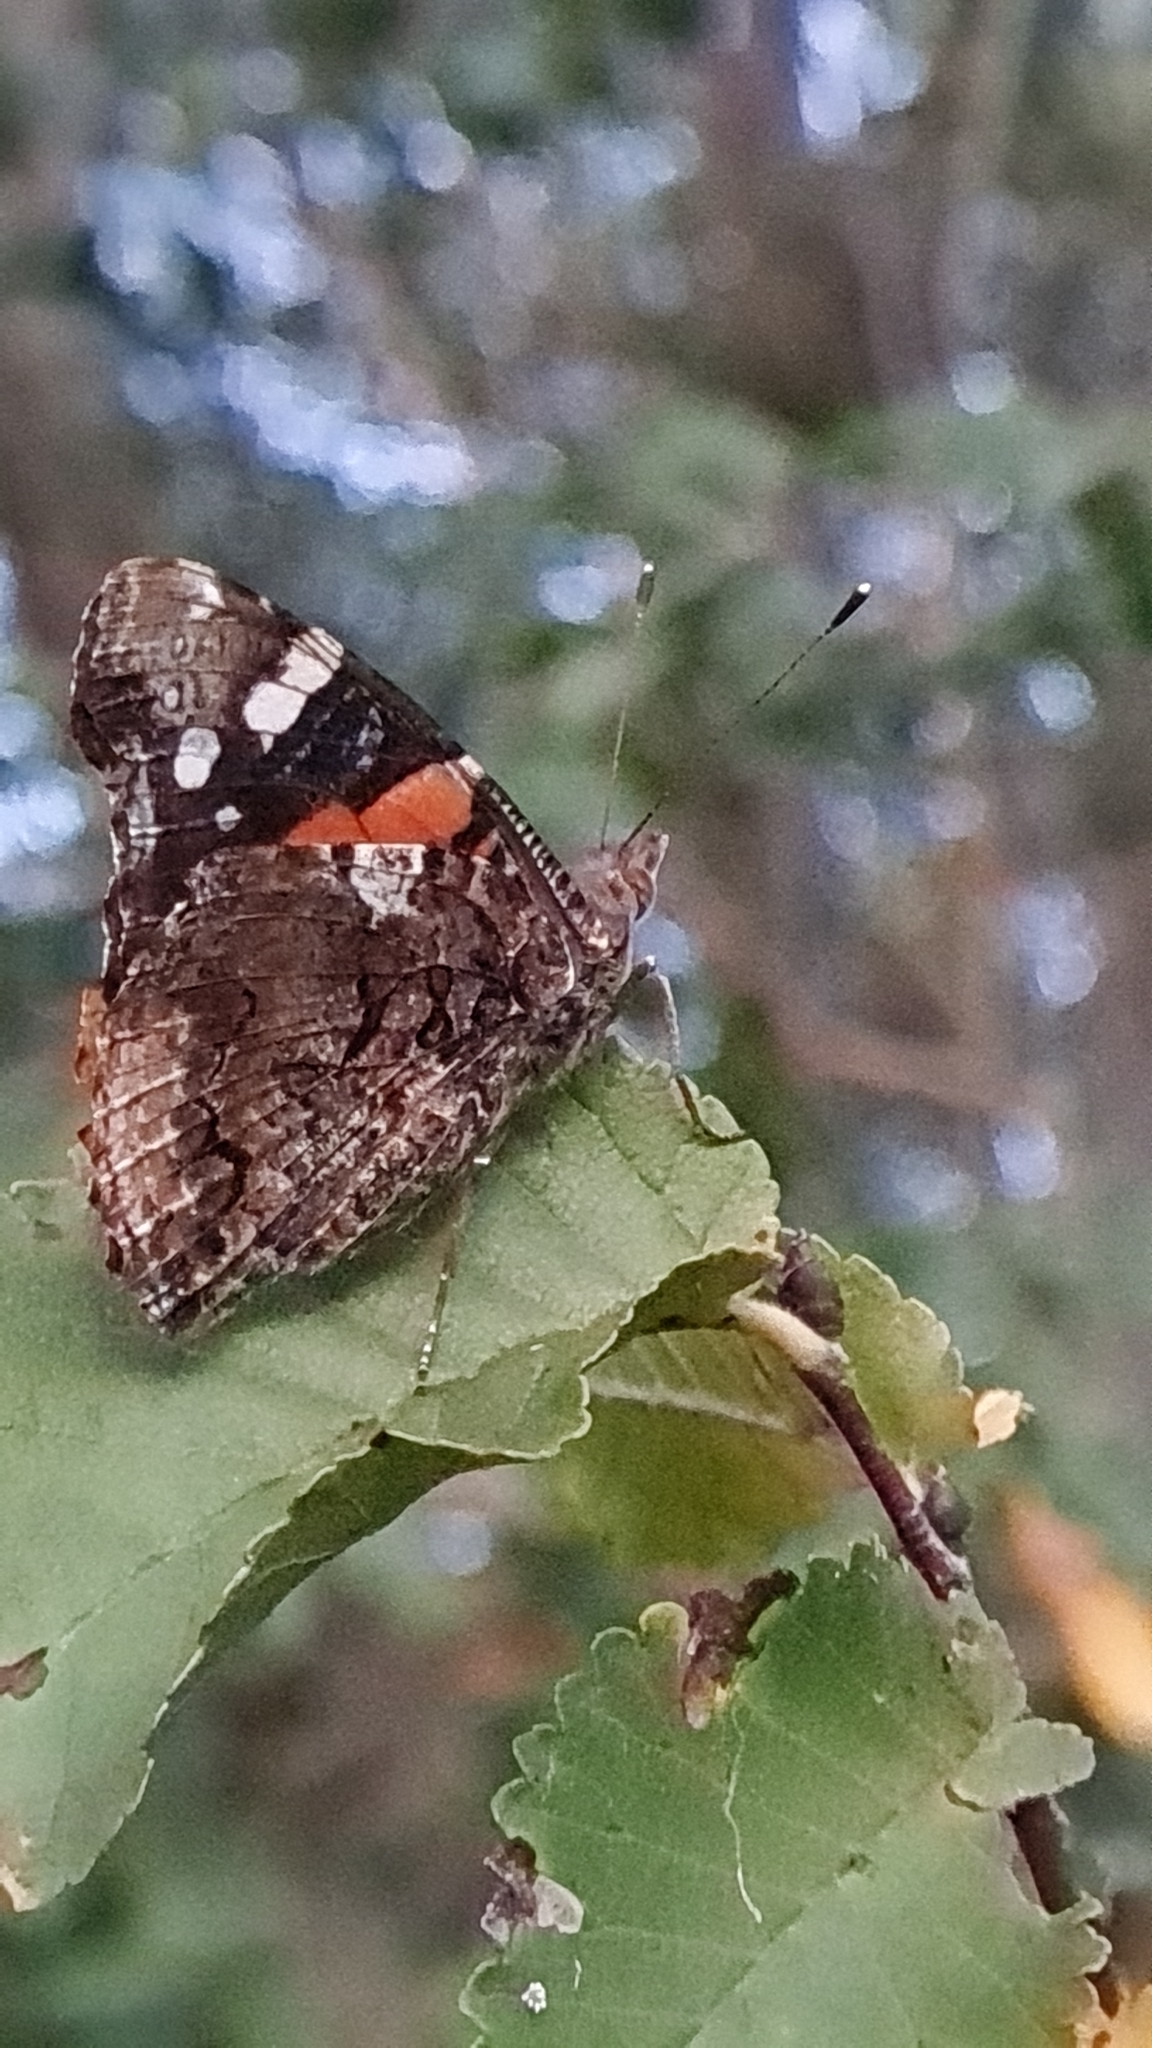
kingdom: Animalia
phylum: Arthropoda
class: Insecta
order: Lepidoptera
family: Nymphalidae
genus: Vanessa
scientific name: Vanessa atalanta
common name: Red admiral
